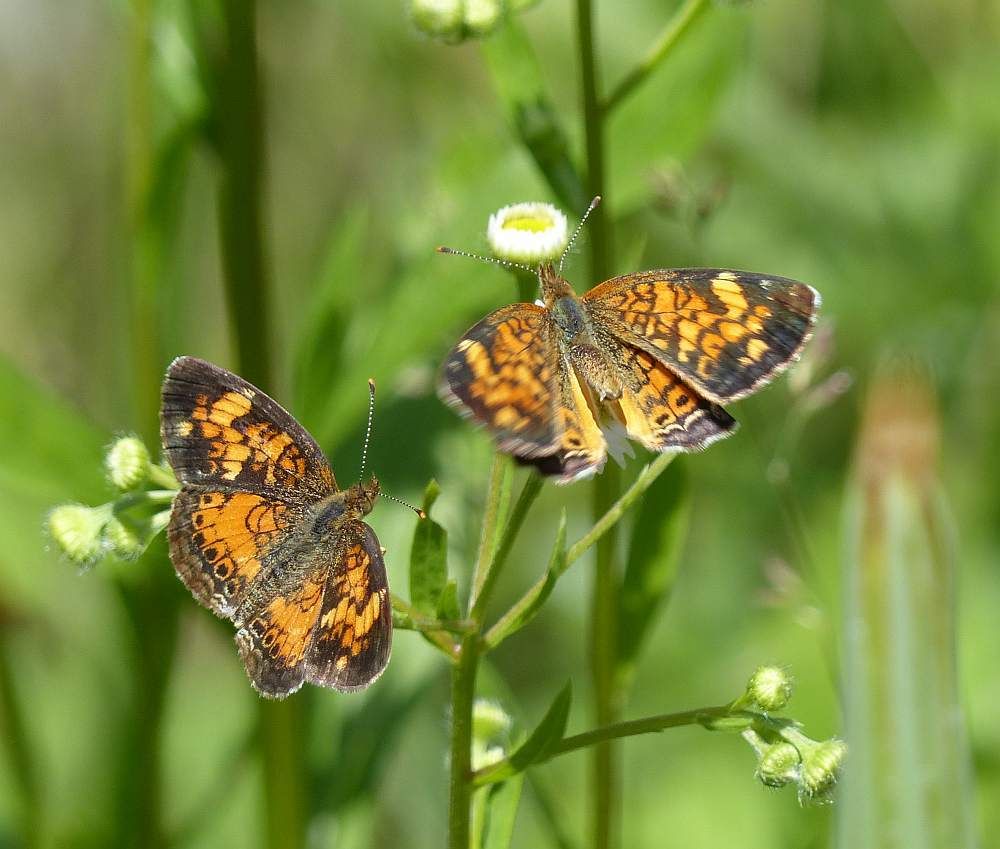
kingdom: Animalia
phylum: Arthropoda
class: Insecta
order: Lepidoptera
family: Nymphalidae
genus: Phyciodes
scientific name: Phyciodes tharos
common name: Pearl crescent
